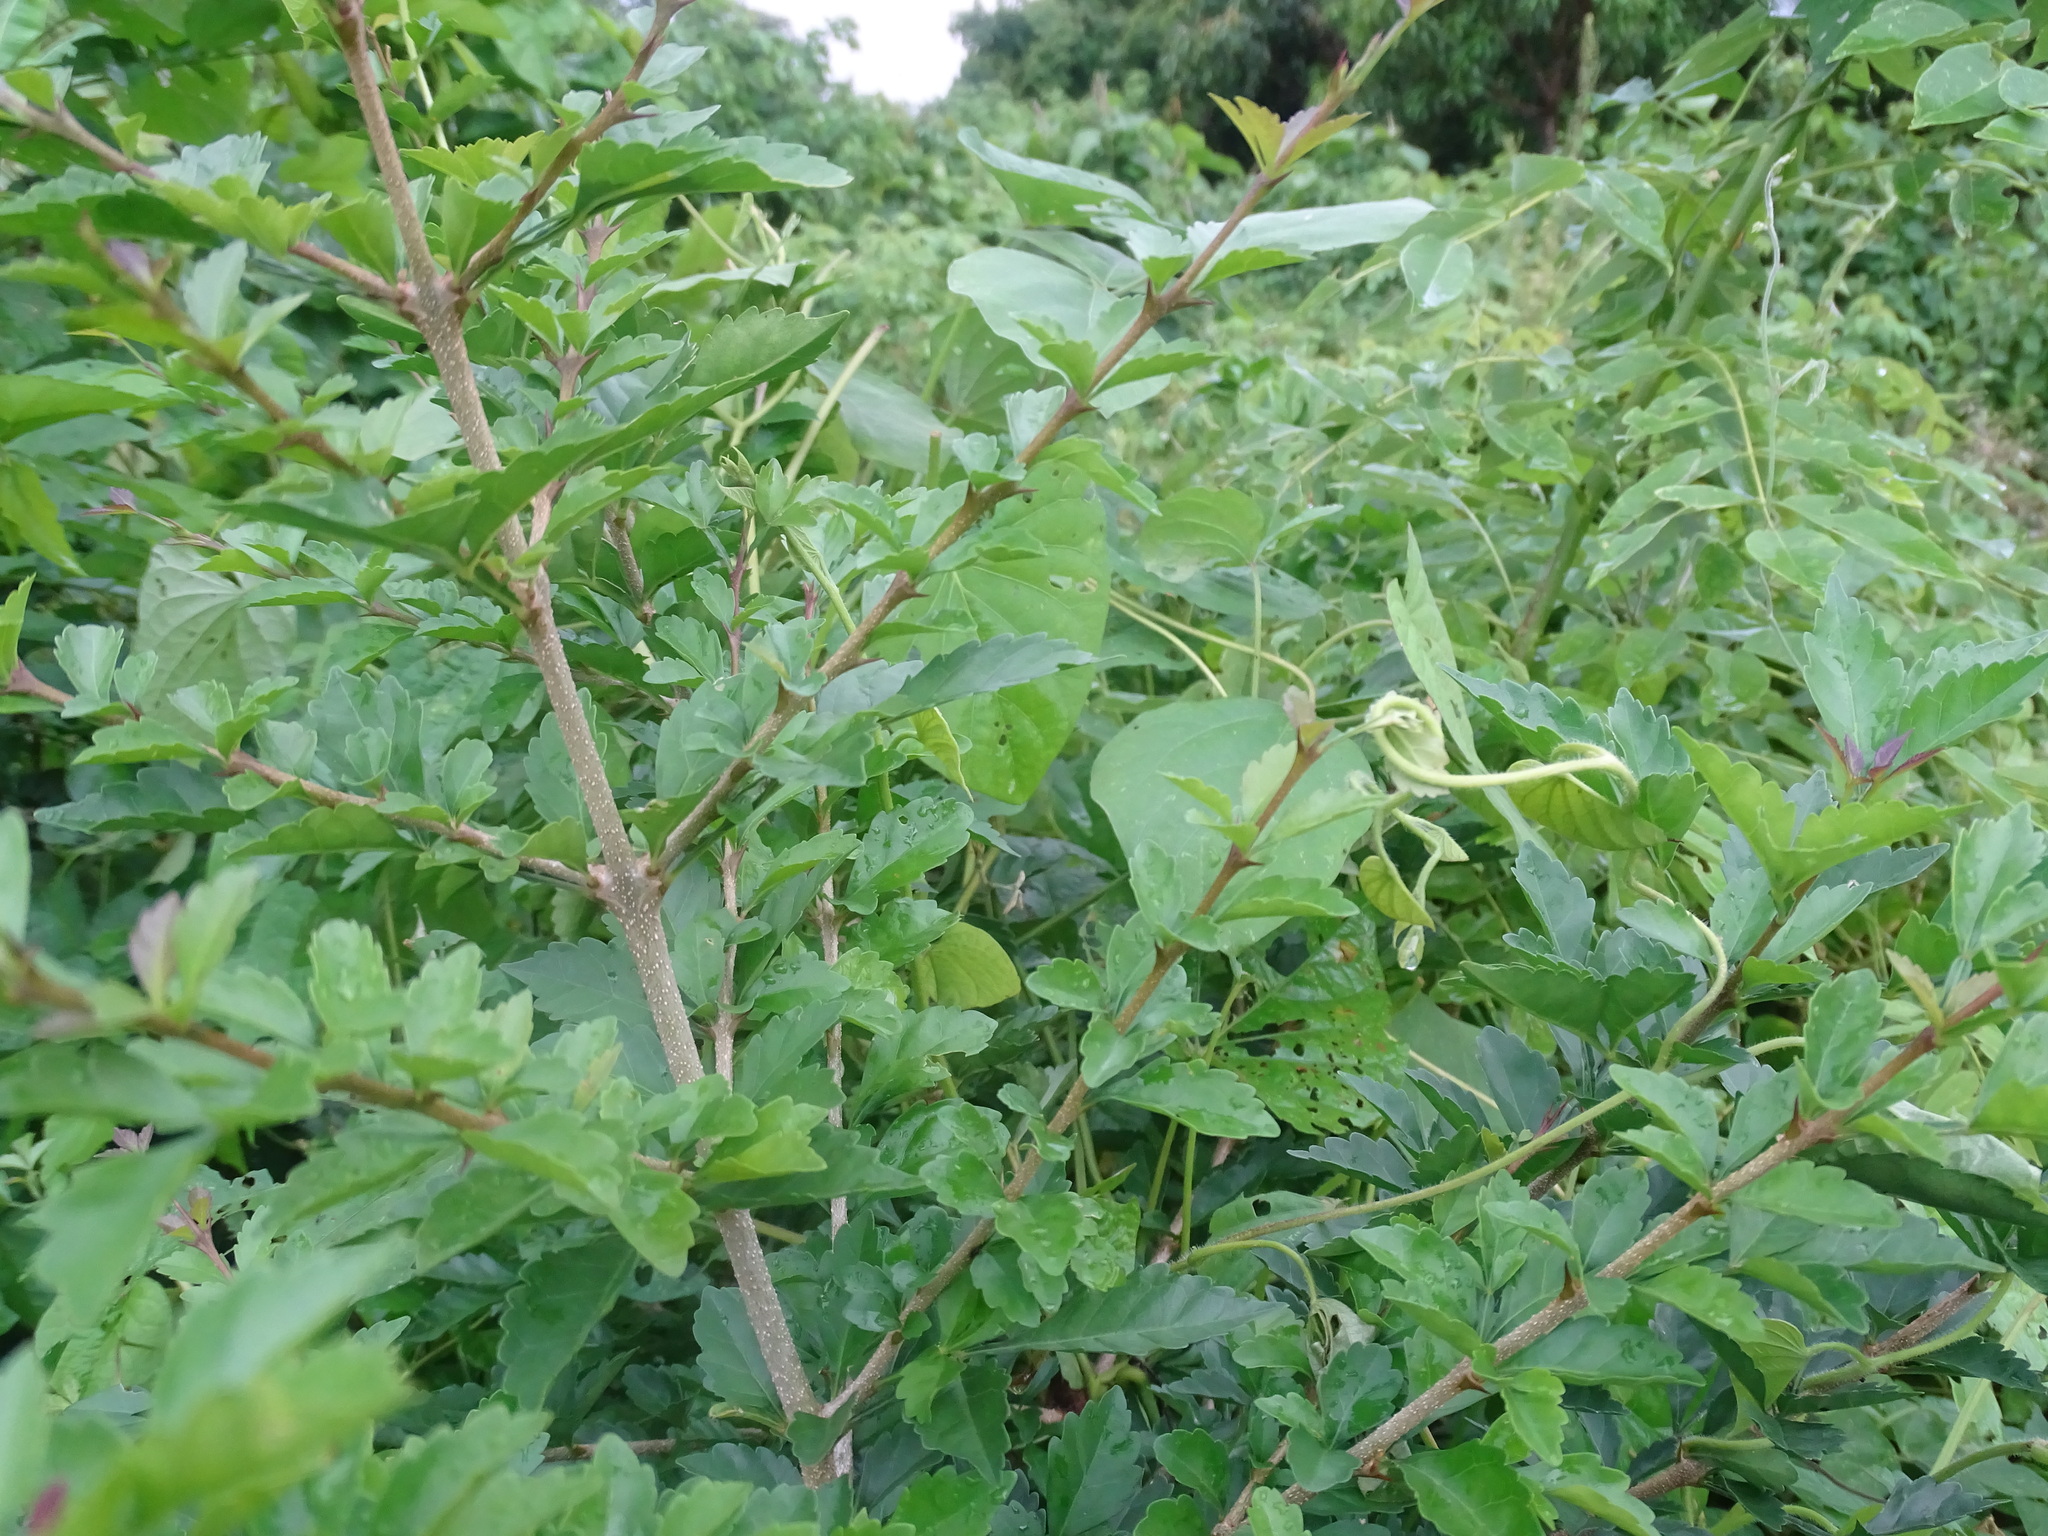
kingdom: Plantae
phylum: Tracheophyta
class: Magnoliopsida
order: Lamiales
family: Bignoniaceae
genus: Parmentiera
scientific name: Parmentiera aculeata
